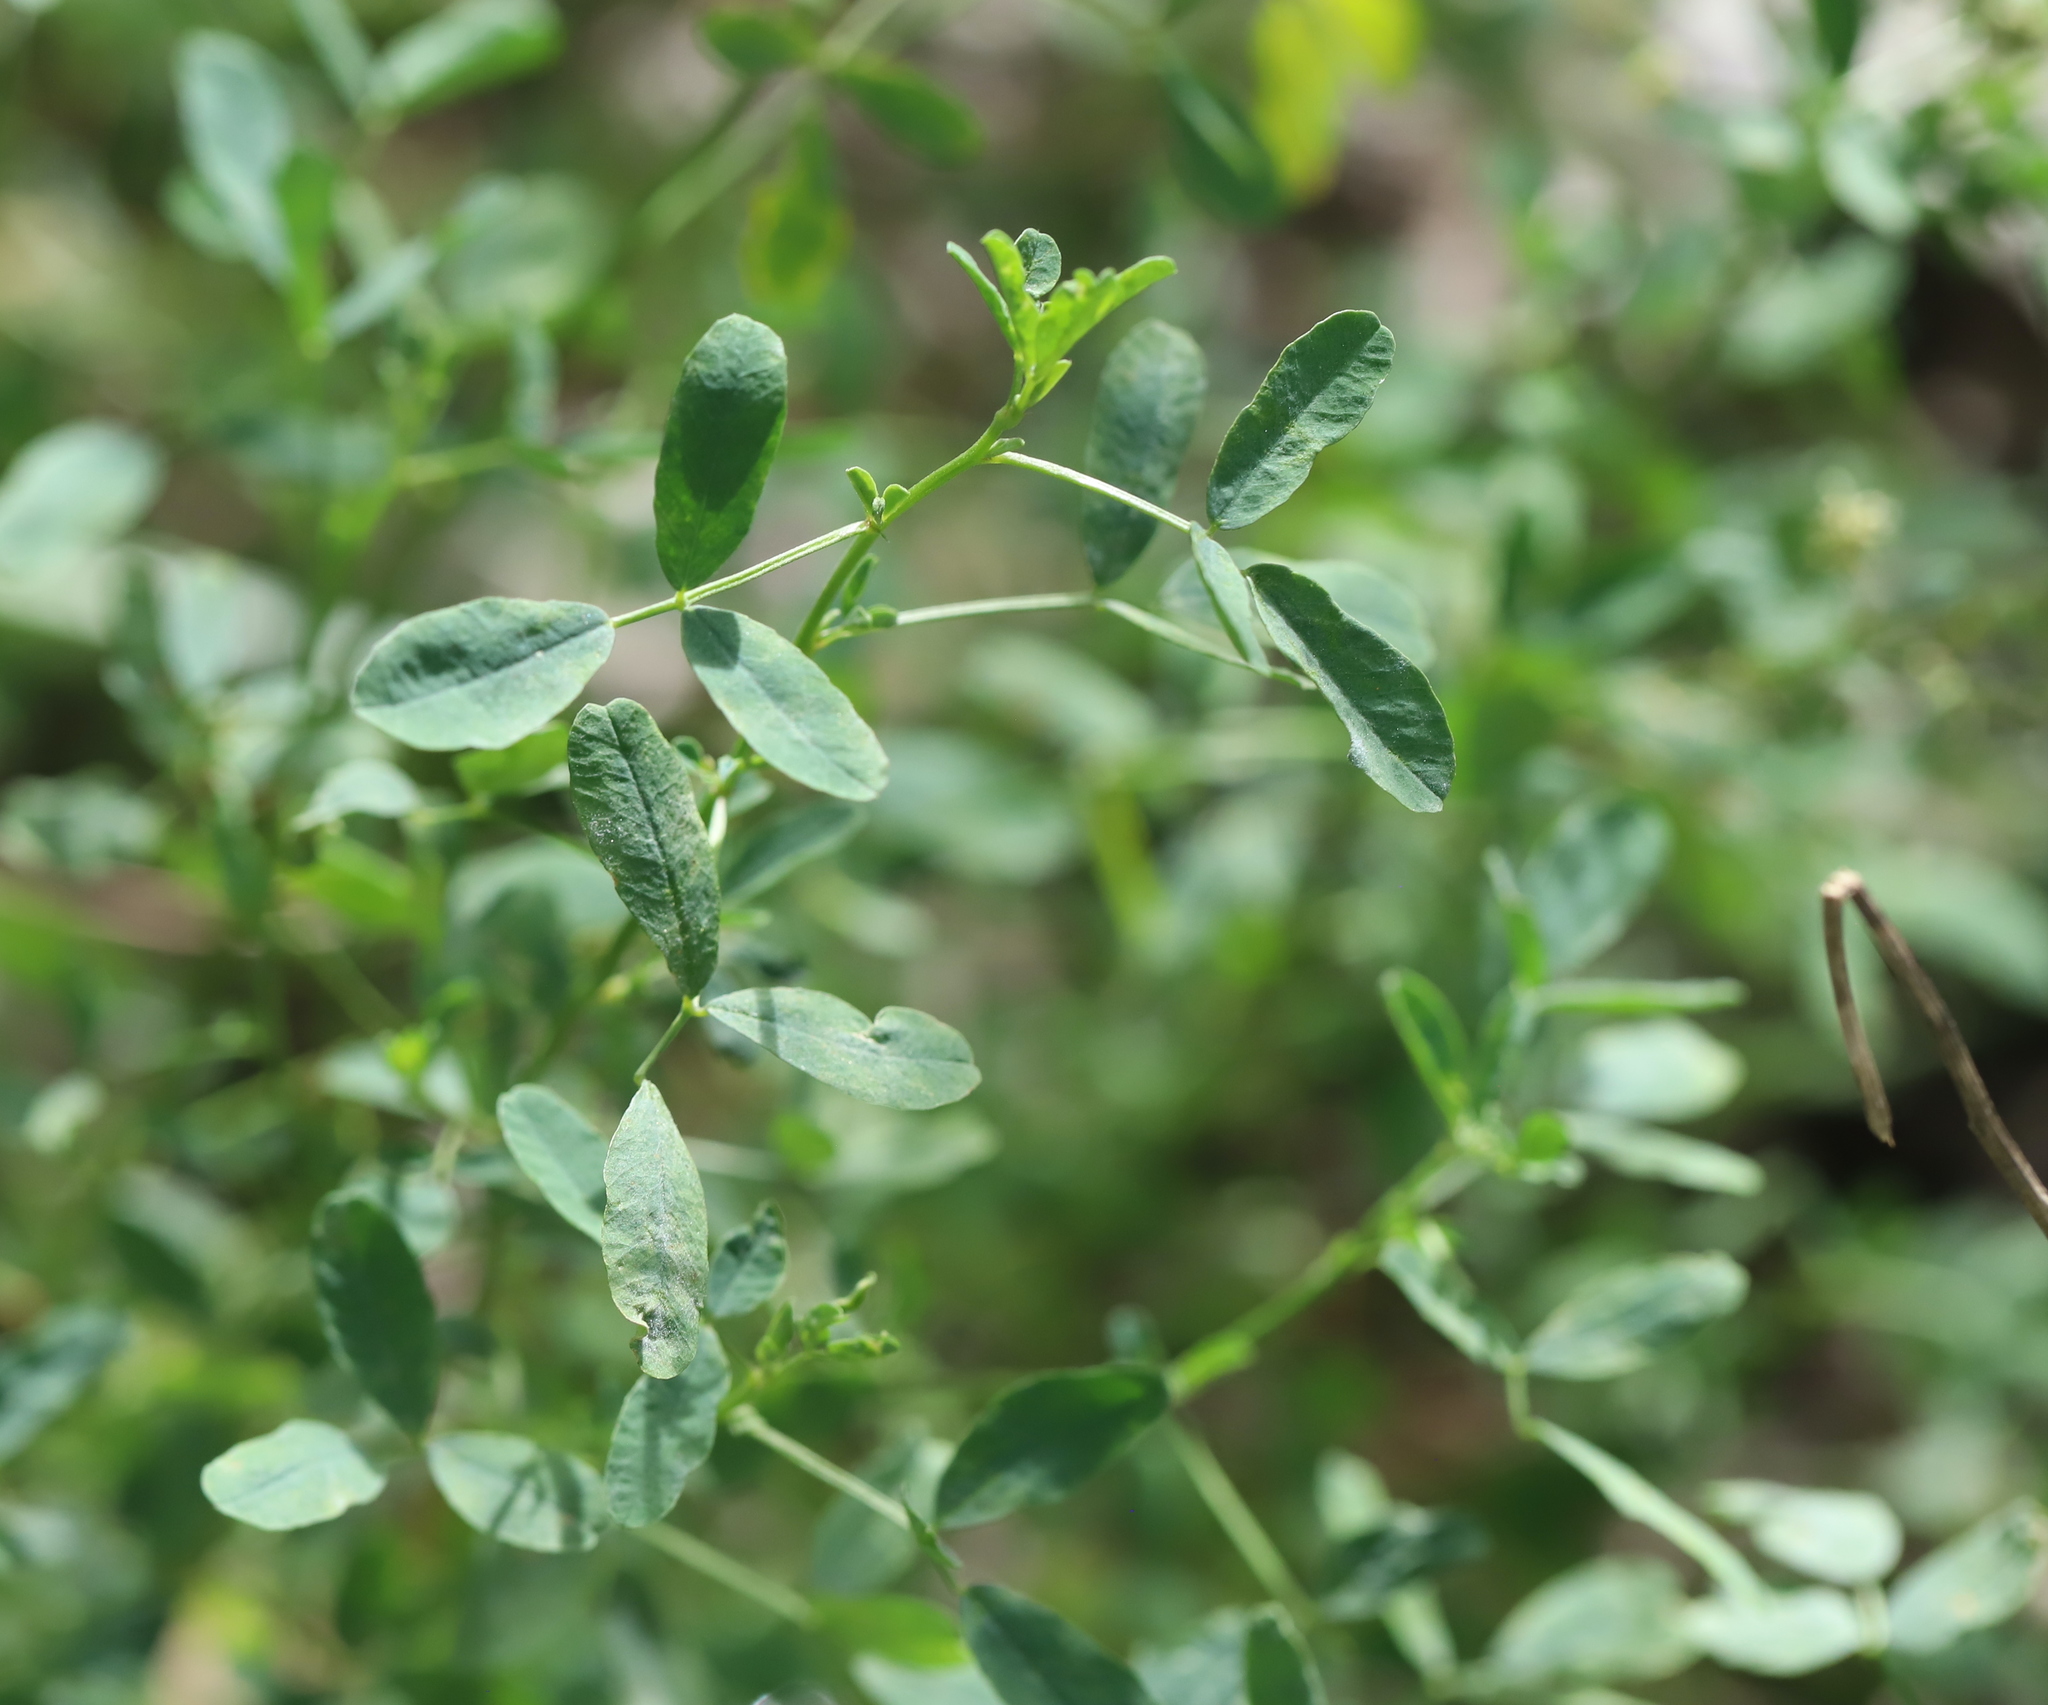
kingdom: Plantae
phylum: Tracheophyta
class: Magnoliopsida
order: Fabales
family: Fabaceae
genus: Melilotus
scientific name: Melilotus albus
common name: White melilot
